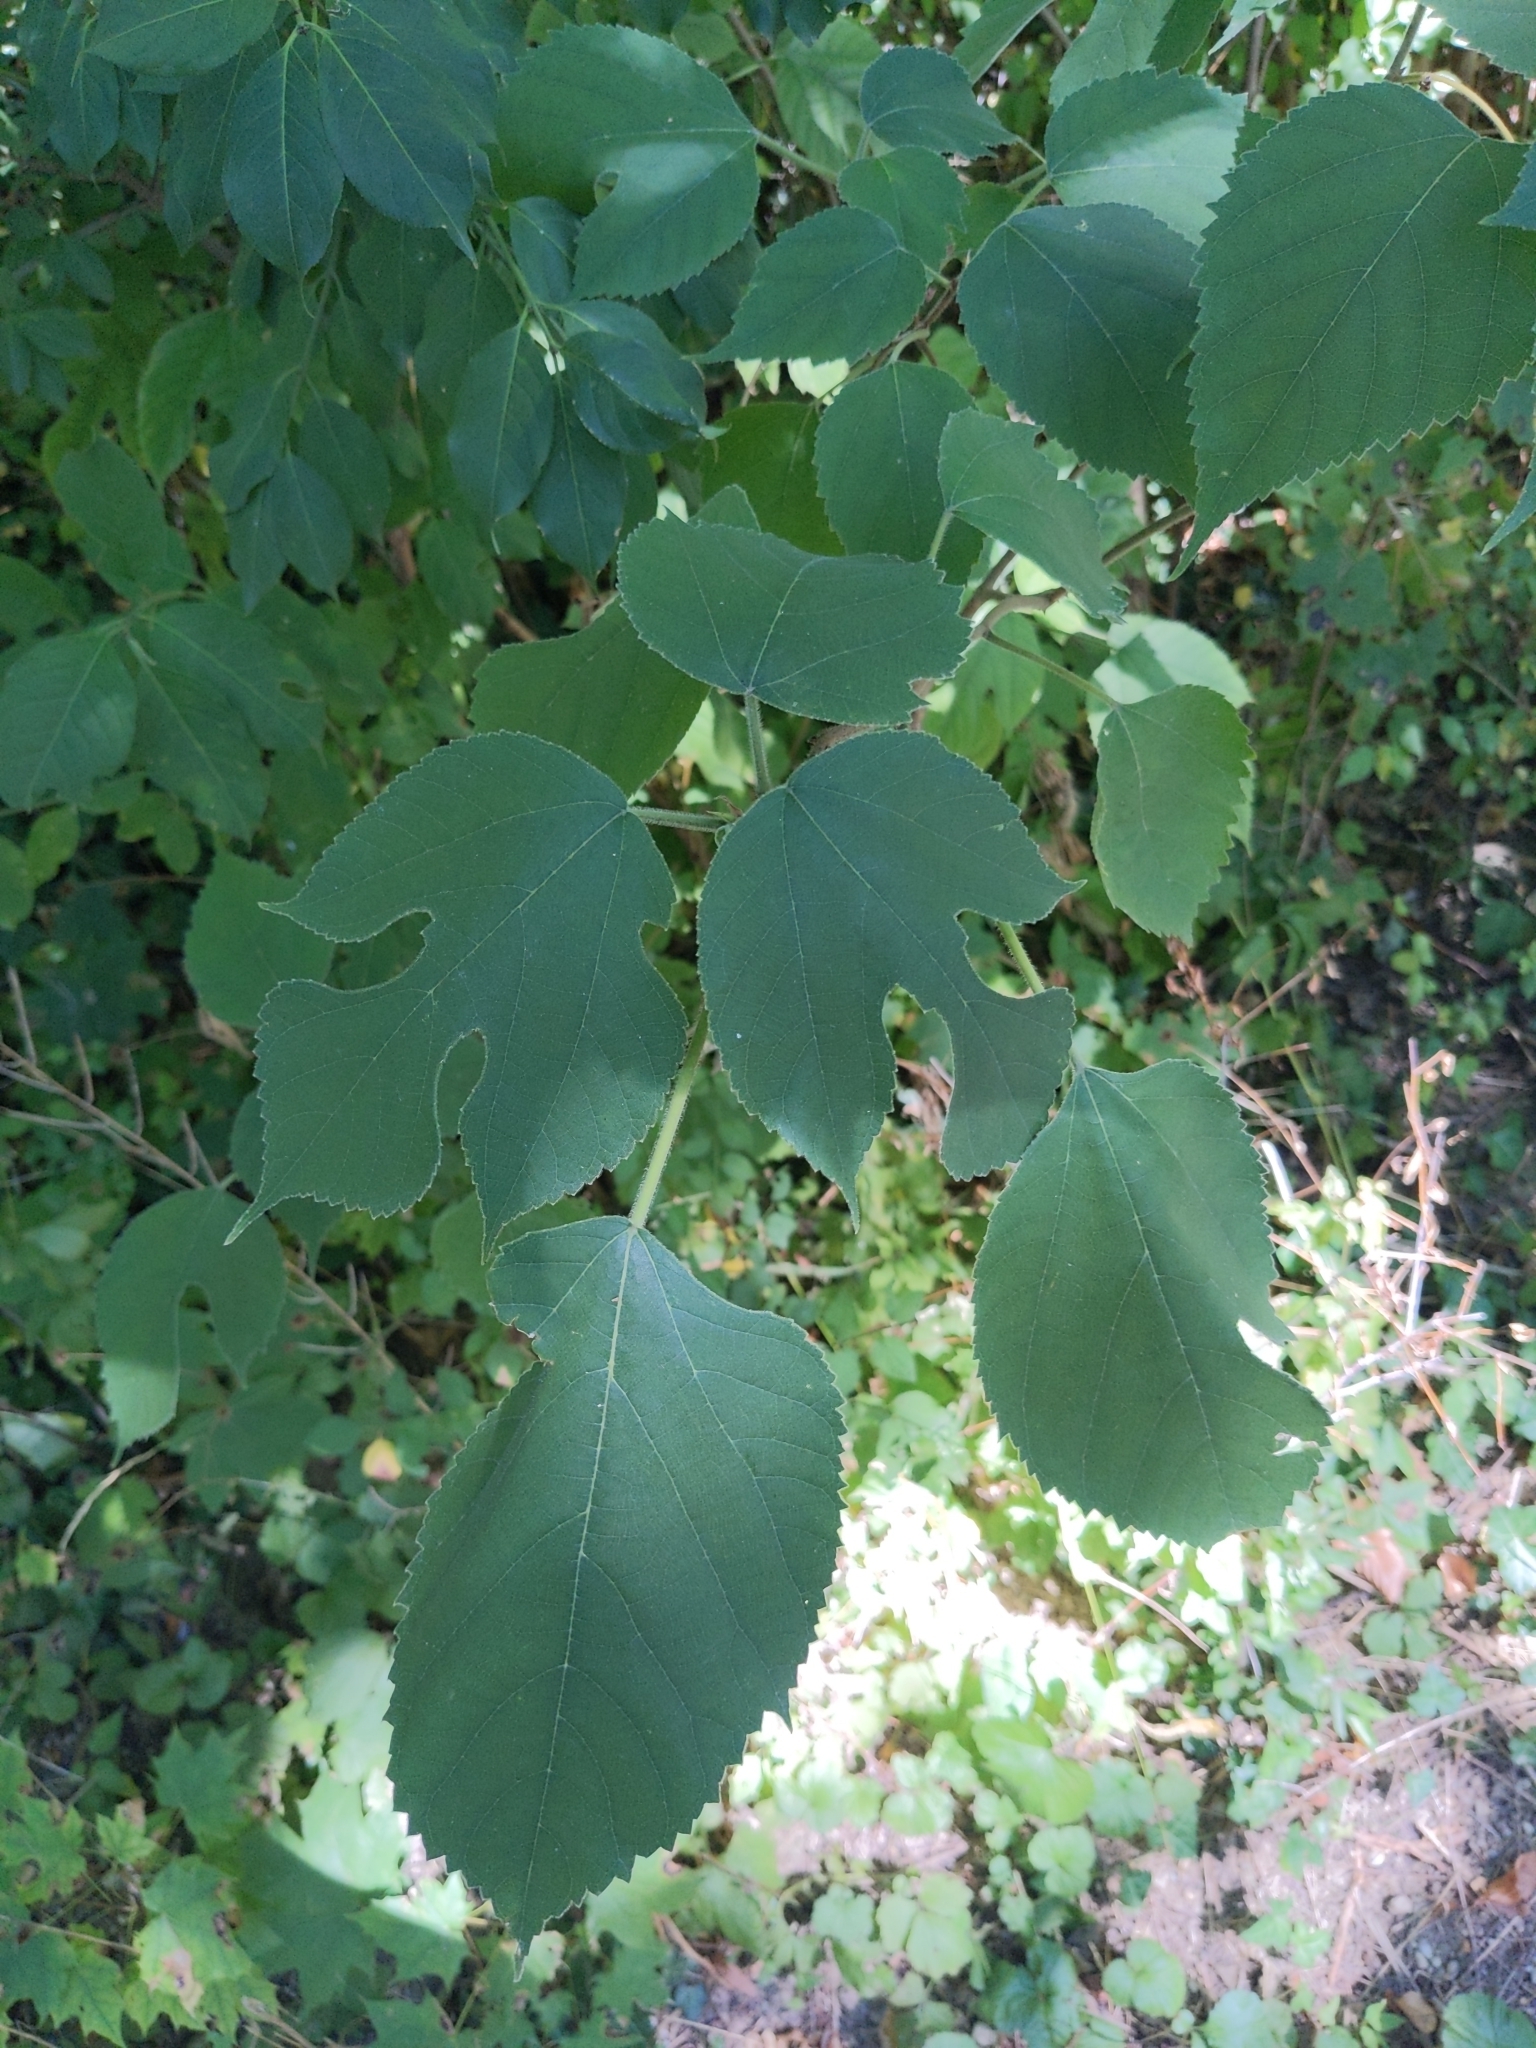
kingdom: Plantae
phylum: Tracheophyta
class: Magnoliopsida
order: Rosales
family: Moraceae
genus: Broussonetia
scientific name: Broussonetia papyrifera
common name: Paper mulberry
